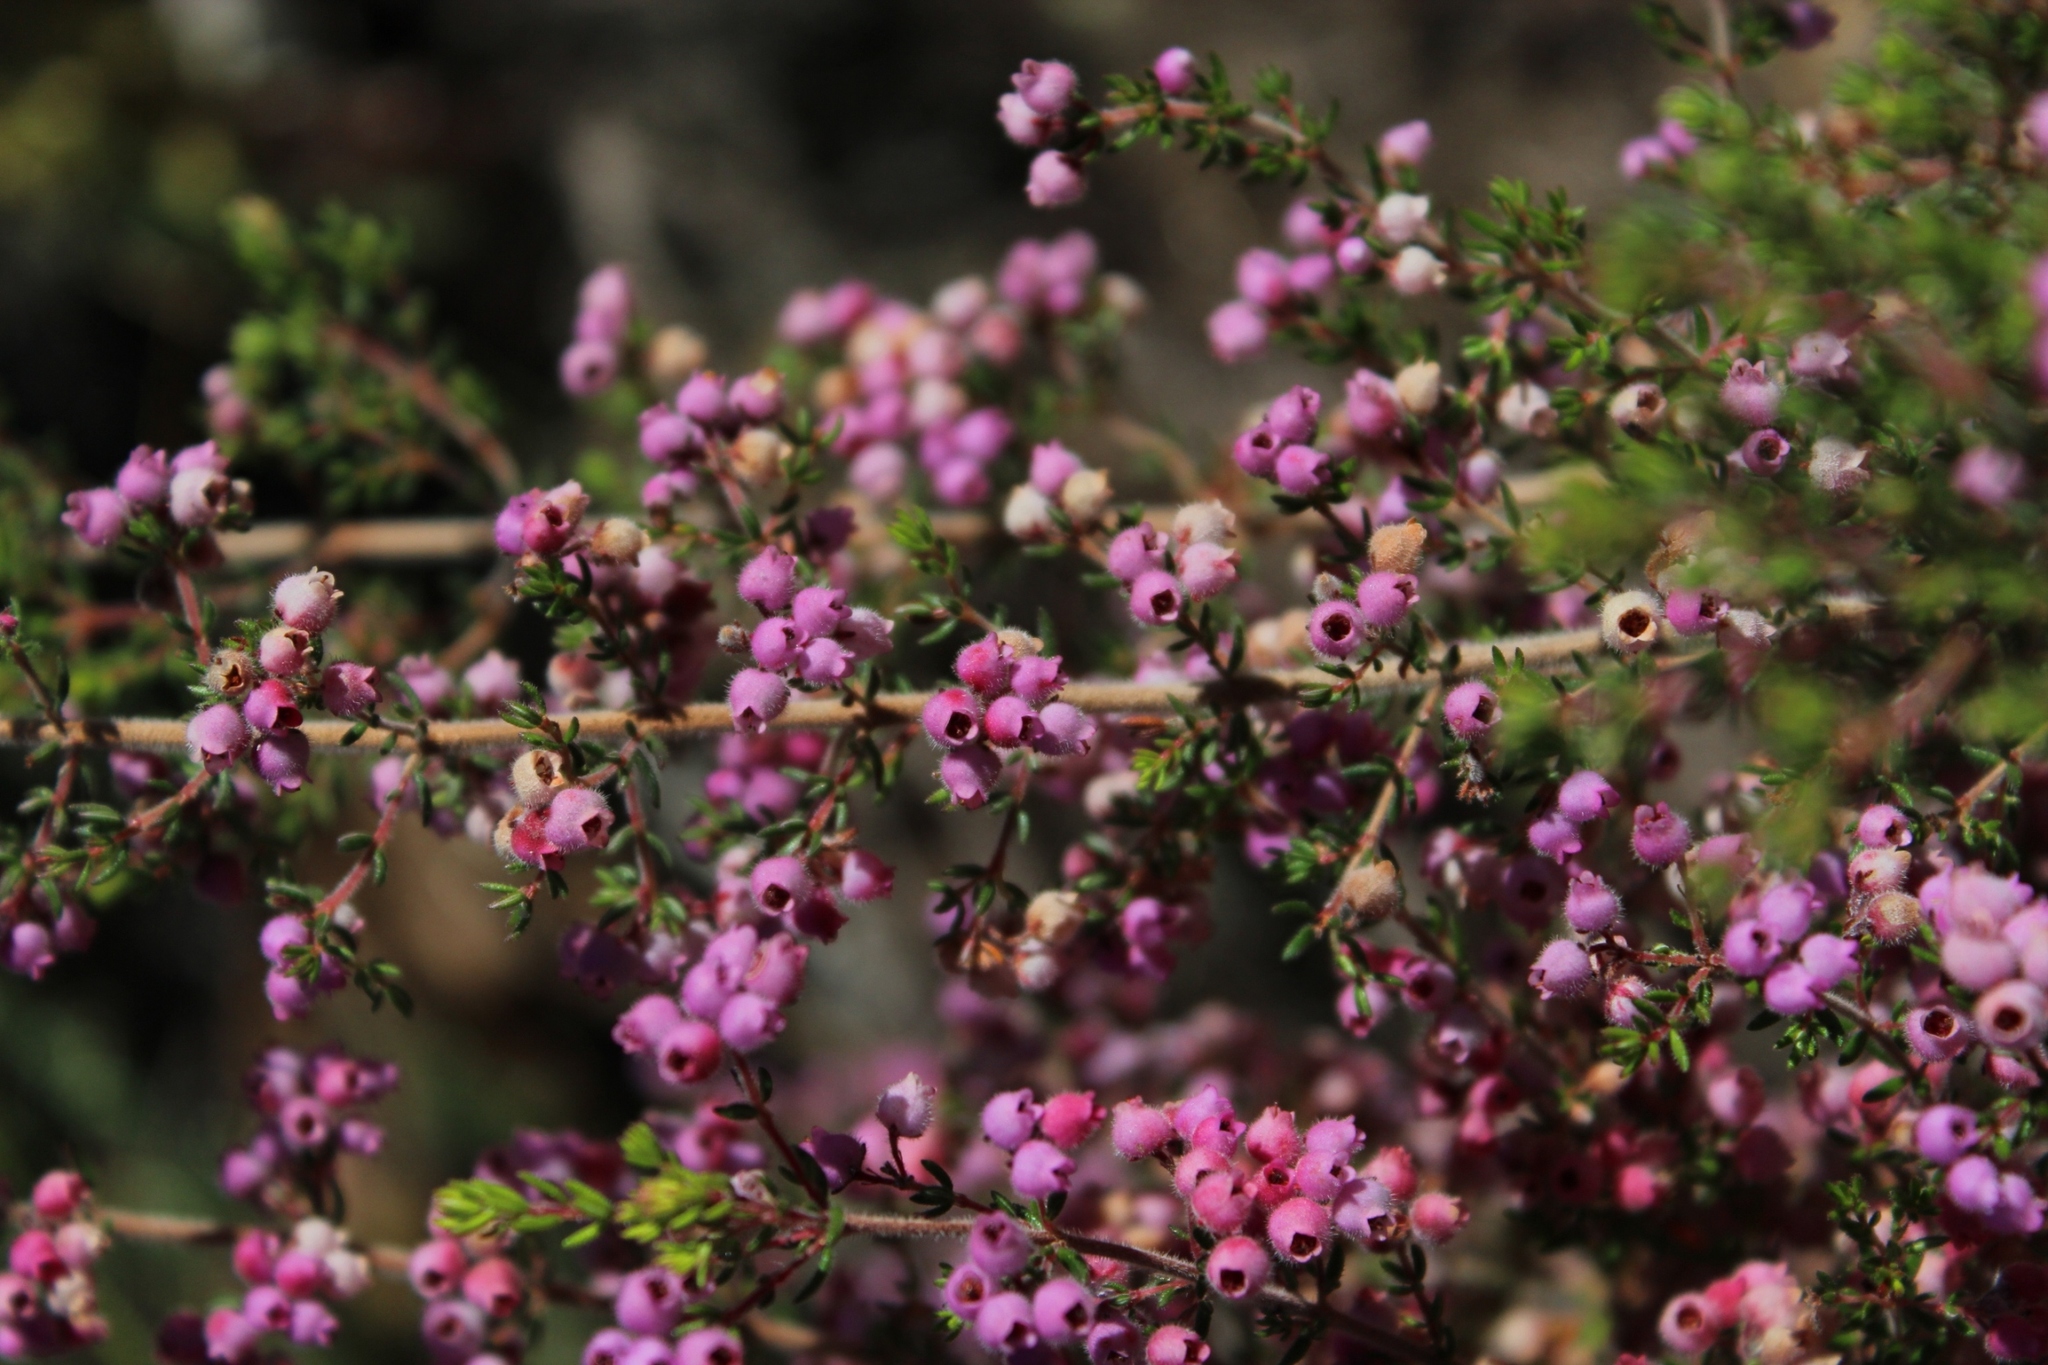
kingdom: Plantae
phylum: Tracheophyta
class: Magnoliopsida
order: Ericales
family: Ericaceae
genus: Erica
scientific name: Erica hirtiflora
